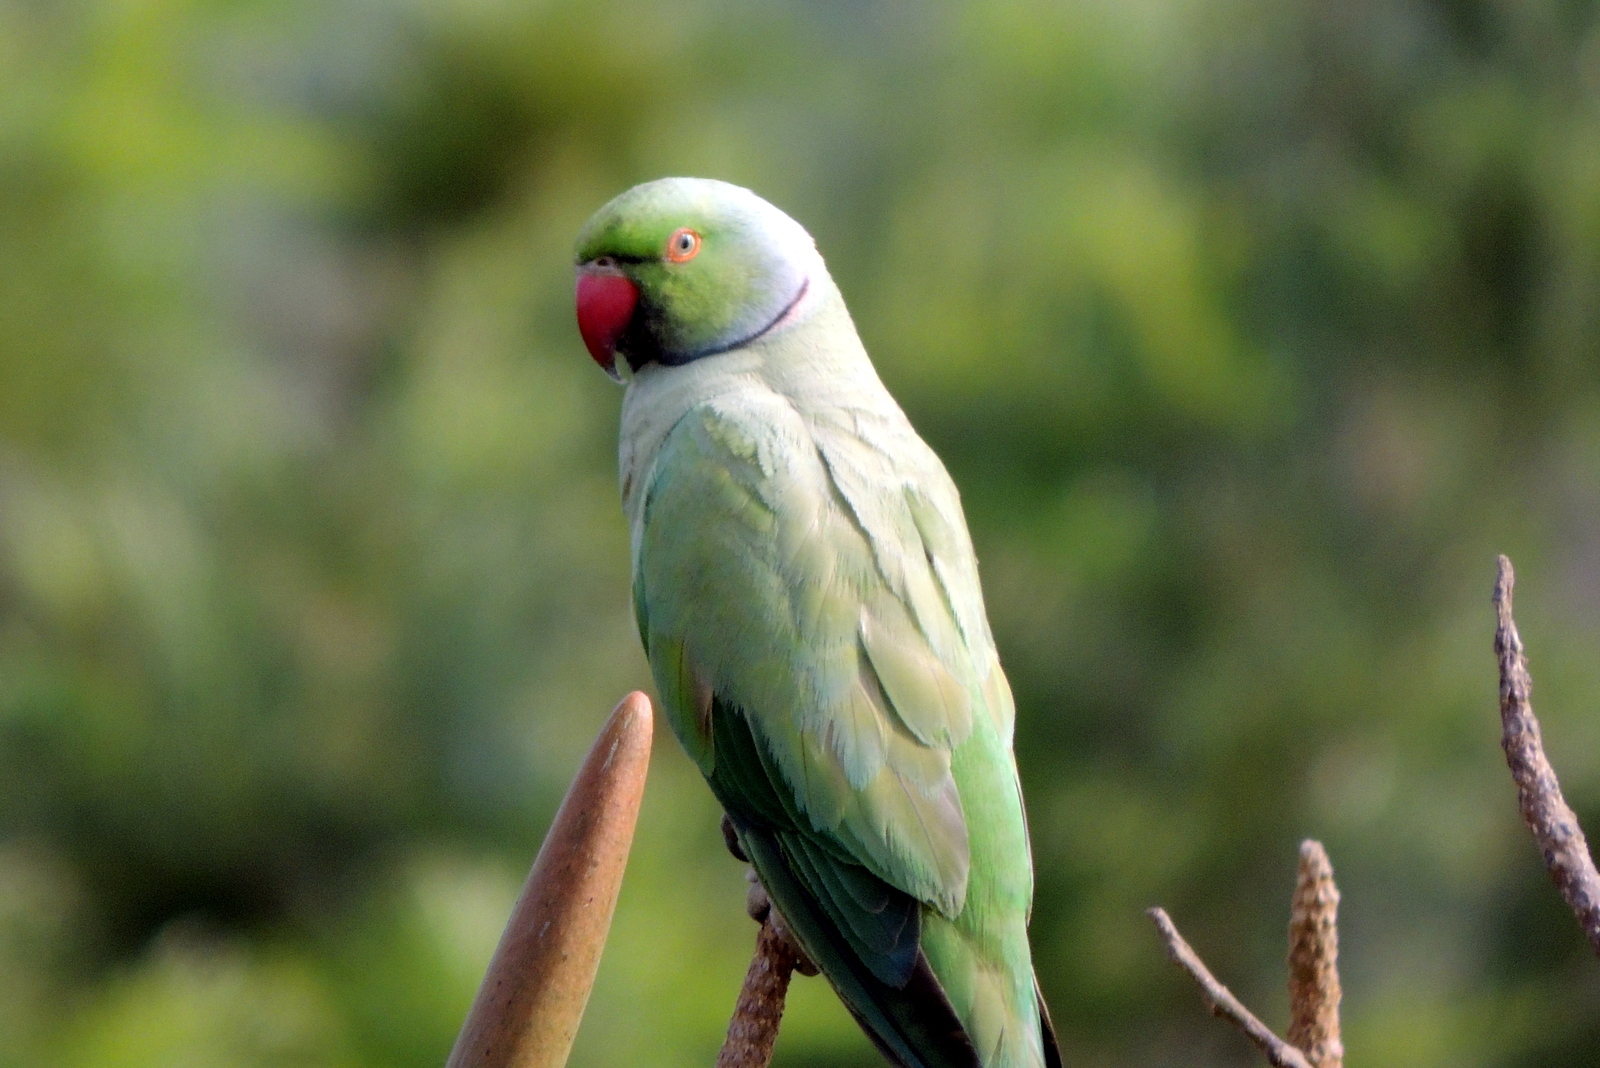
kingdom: Animalia
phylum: Chordata
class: Aves
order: Psittaciformes
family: Psittacidae
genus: Psittacula
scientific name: Psittacula krameri
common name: Rose-ringed parakeet
